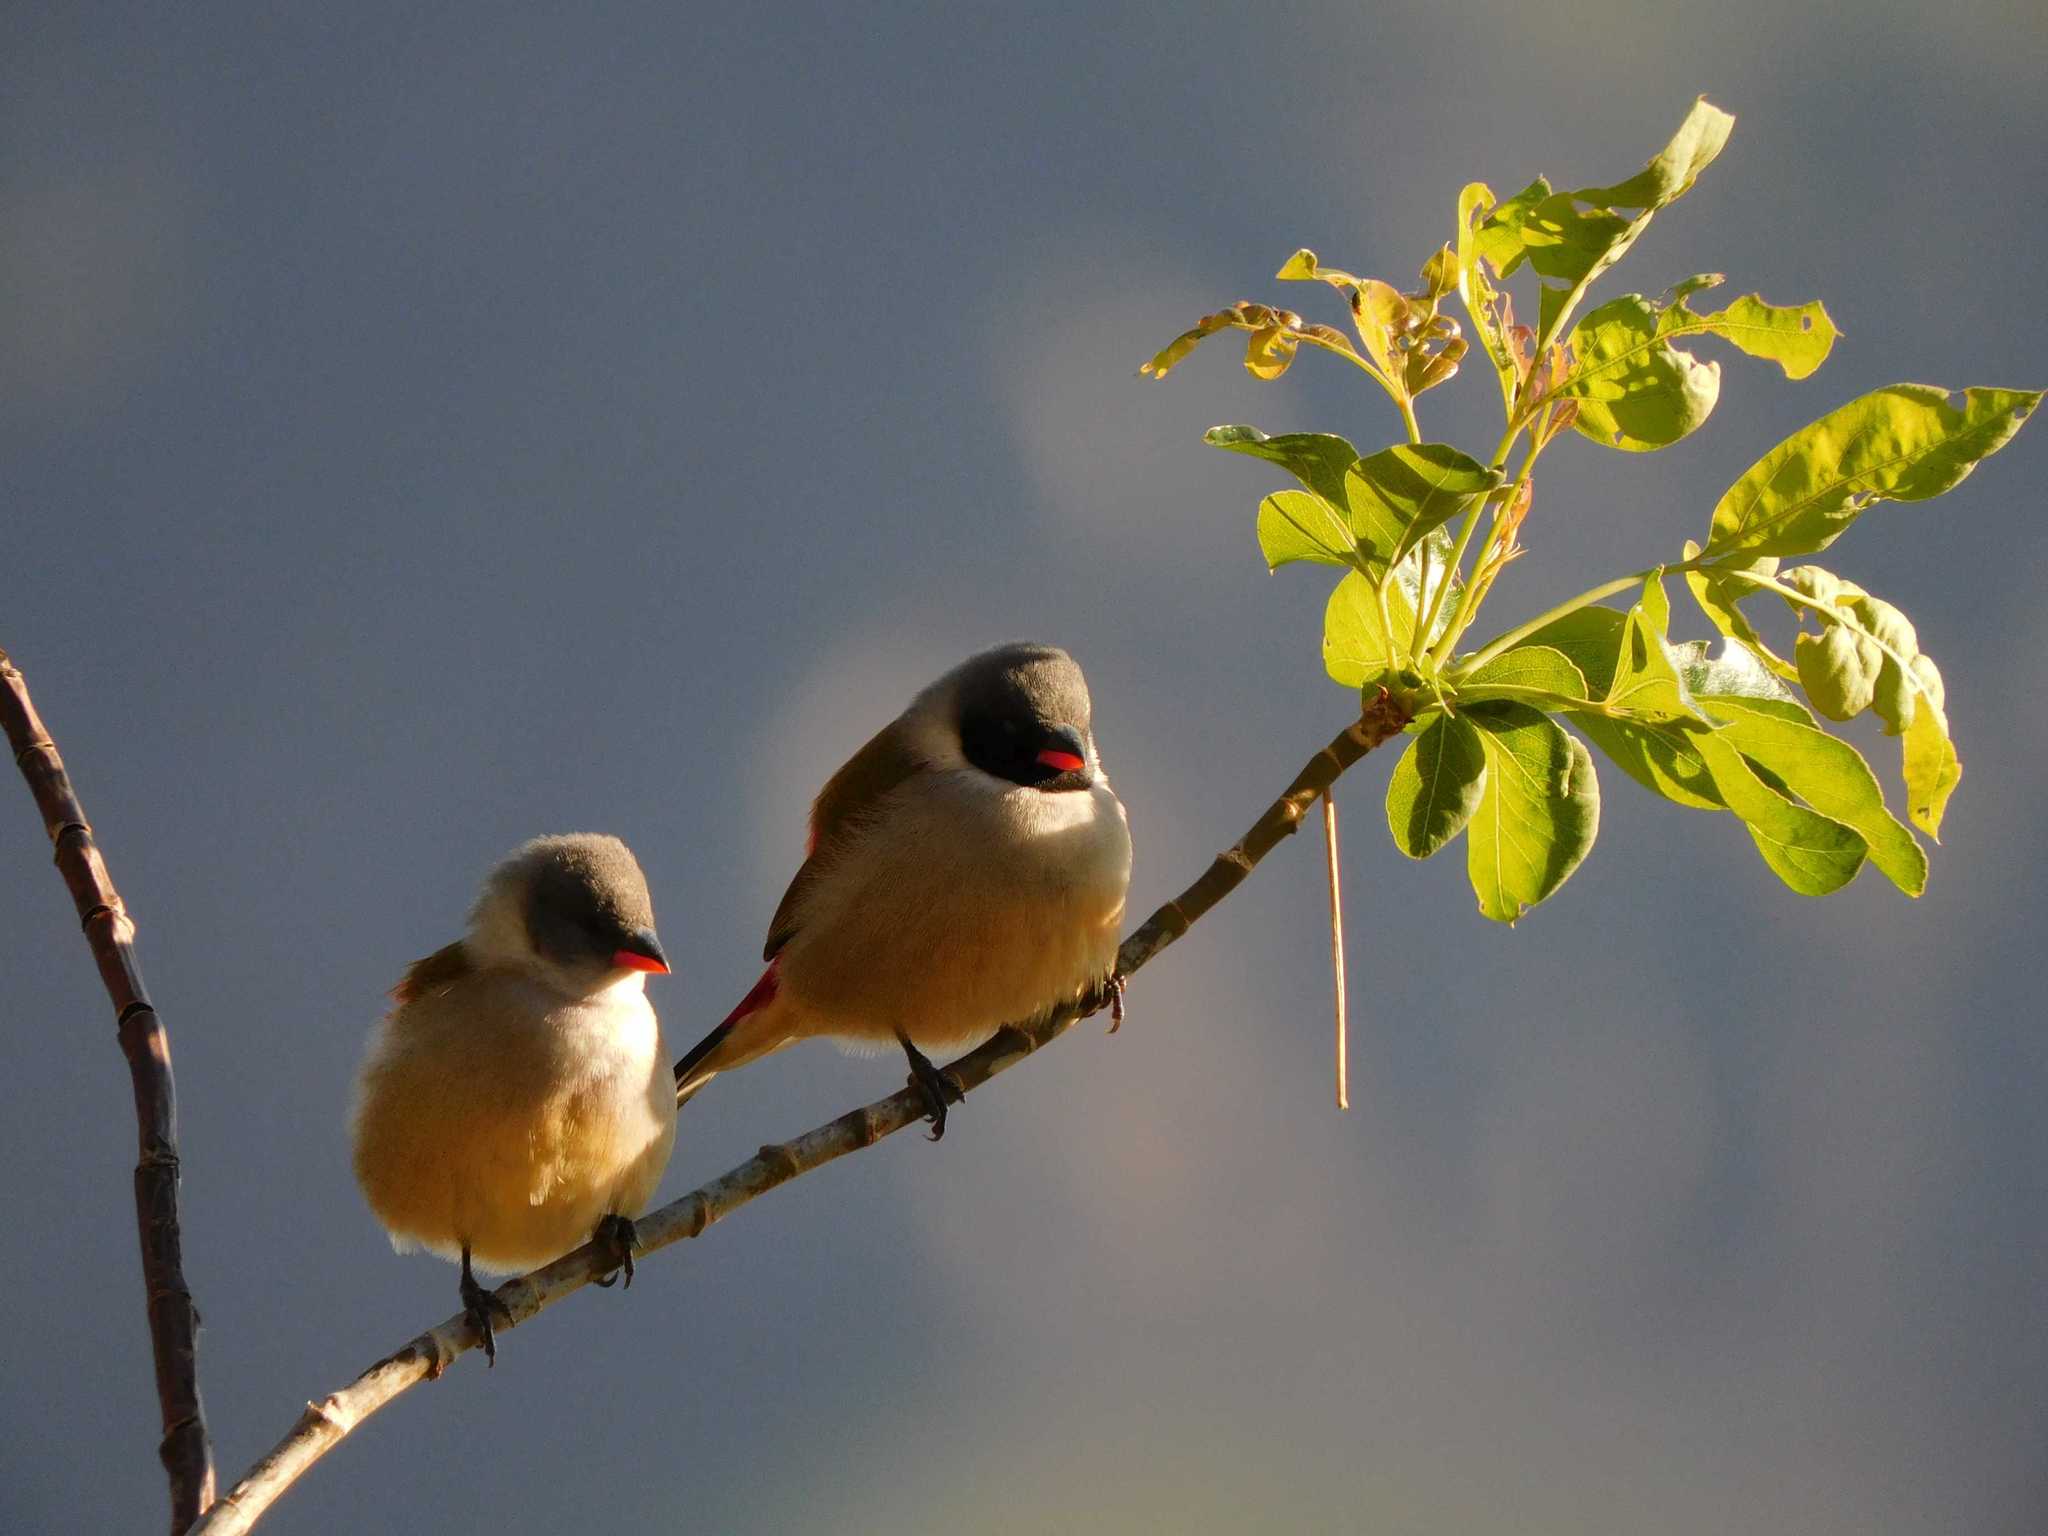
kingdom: Animalia
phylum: Chordata
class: Aves
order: Passeriformes
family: Estrildidae
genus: Coccopygia
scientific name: Coccopygia melanotis
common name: Swee waxbill
